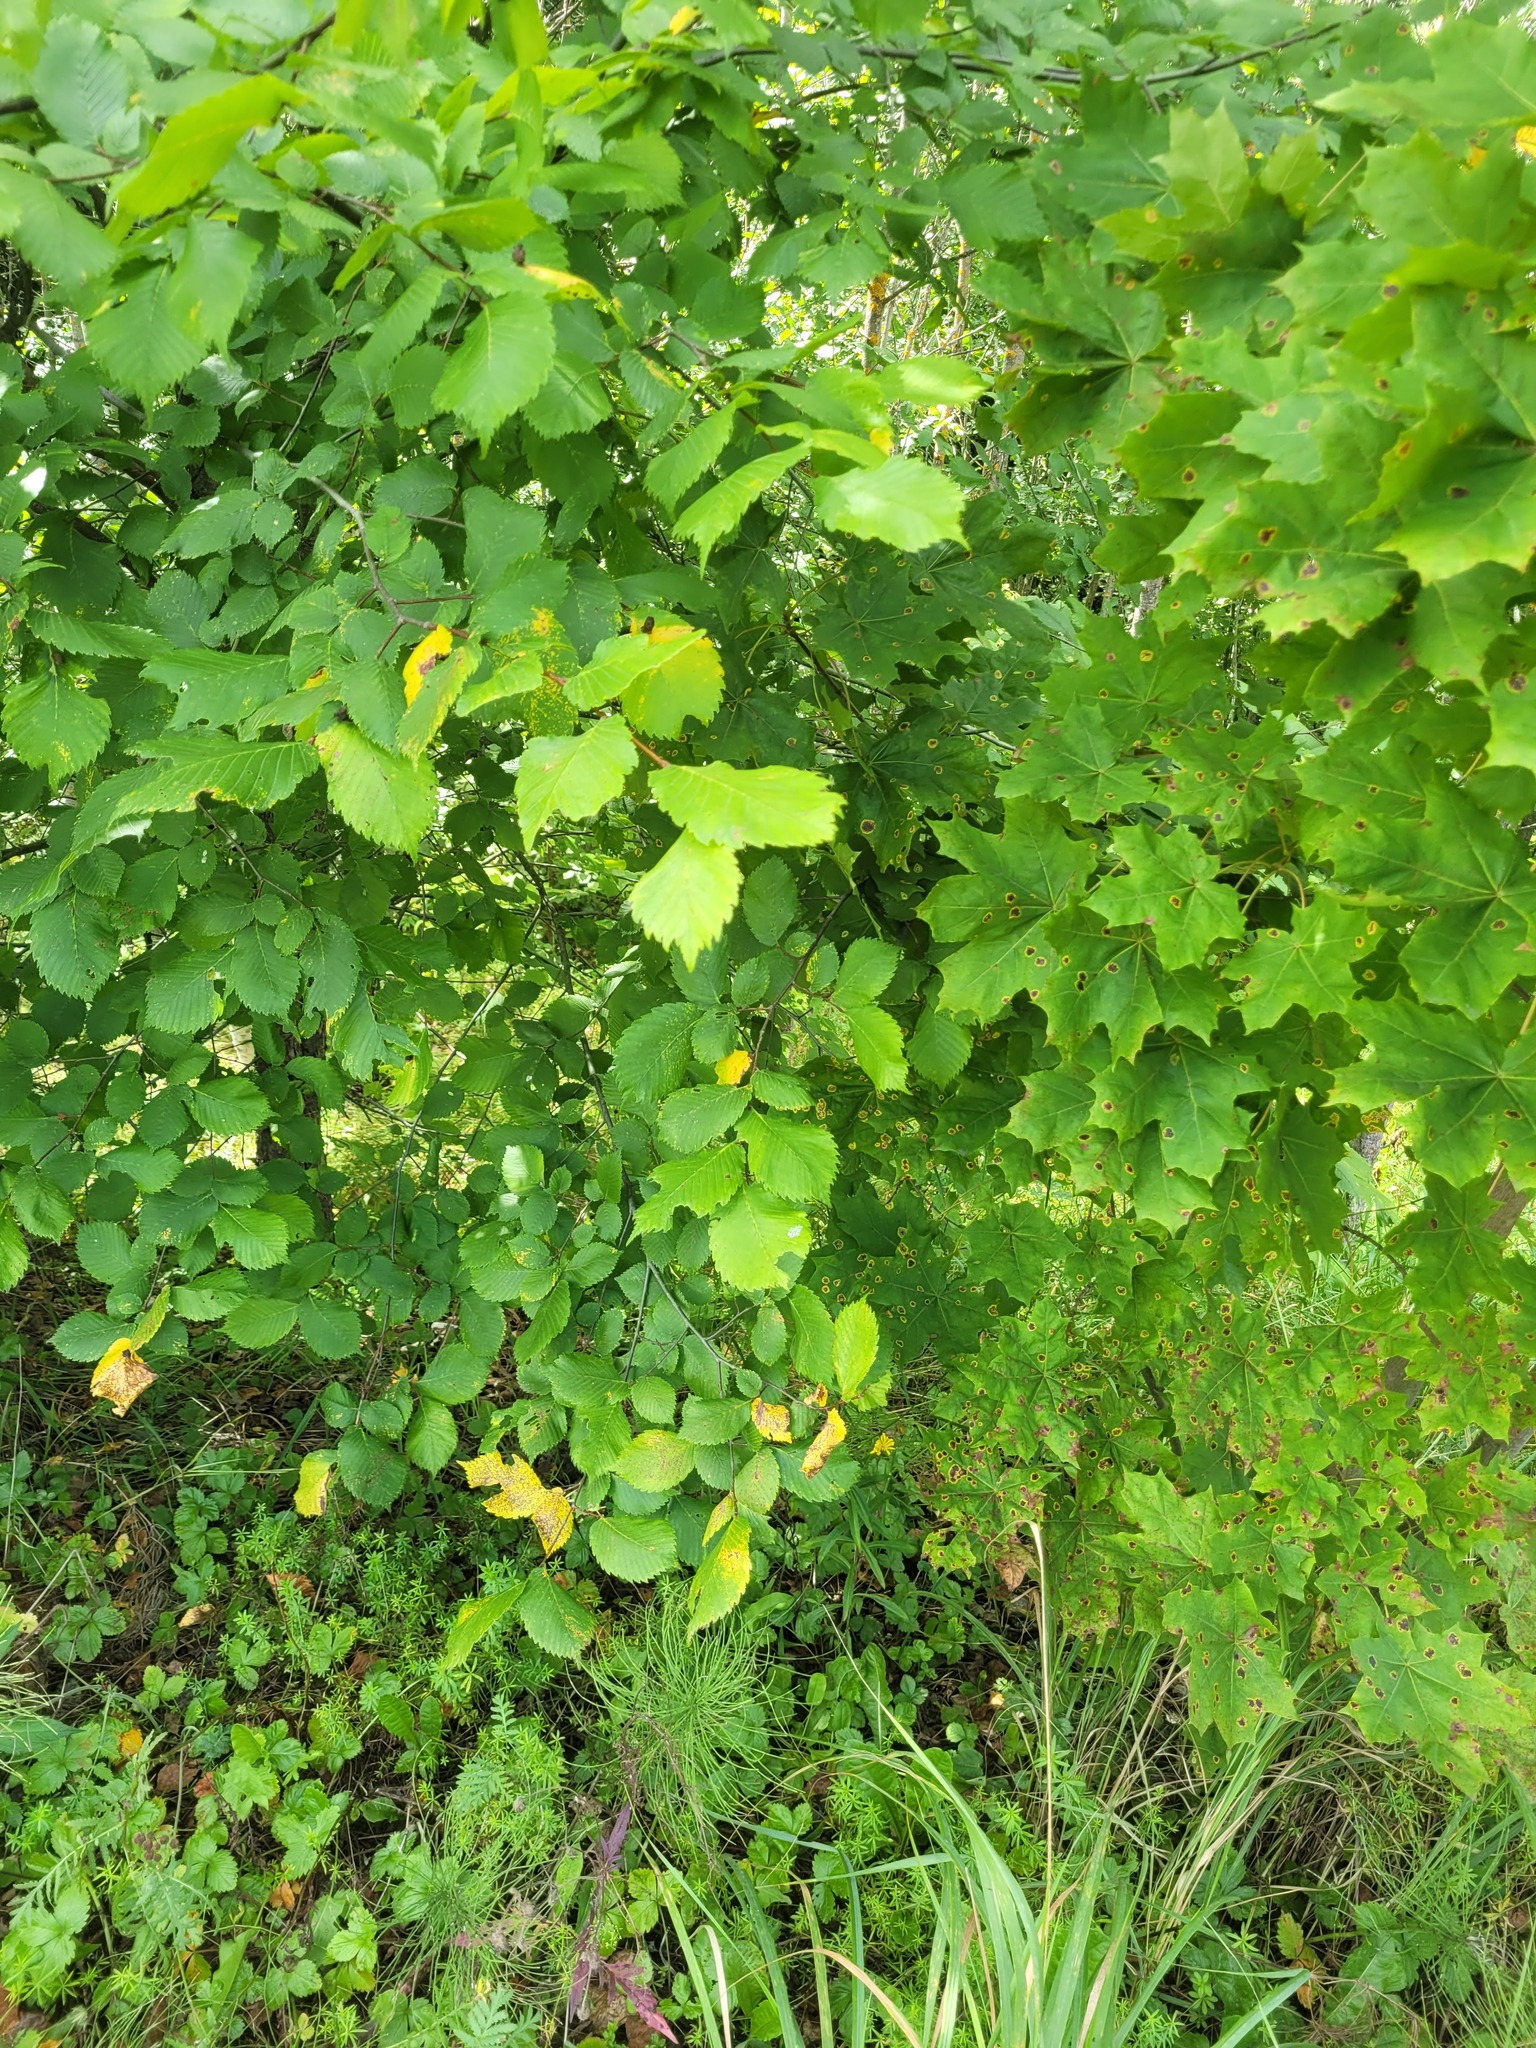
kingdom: Plantae
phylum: Tracheophyta
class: Magnoliopsida
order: Rosales
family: Ulmaceae
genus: Ulmus
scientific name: Ulmus laevis
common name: European white-elm
